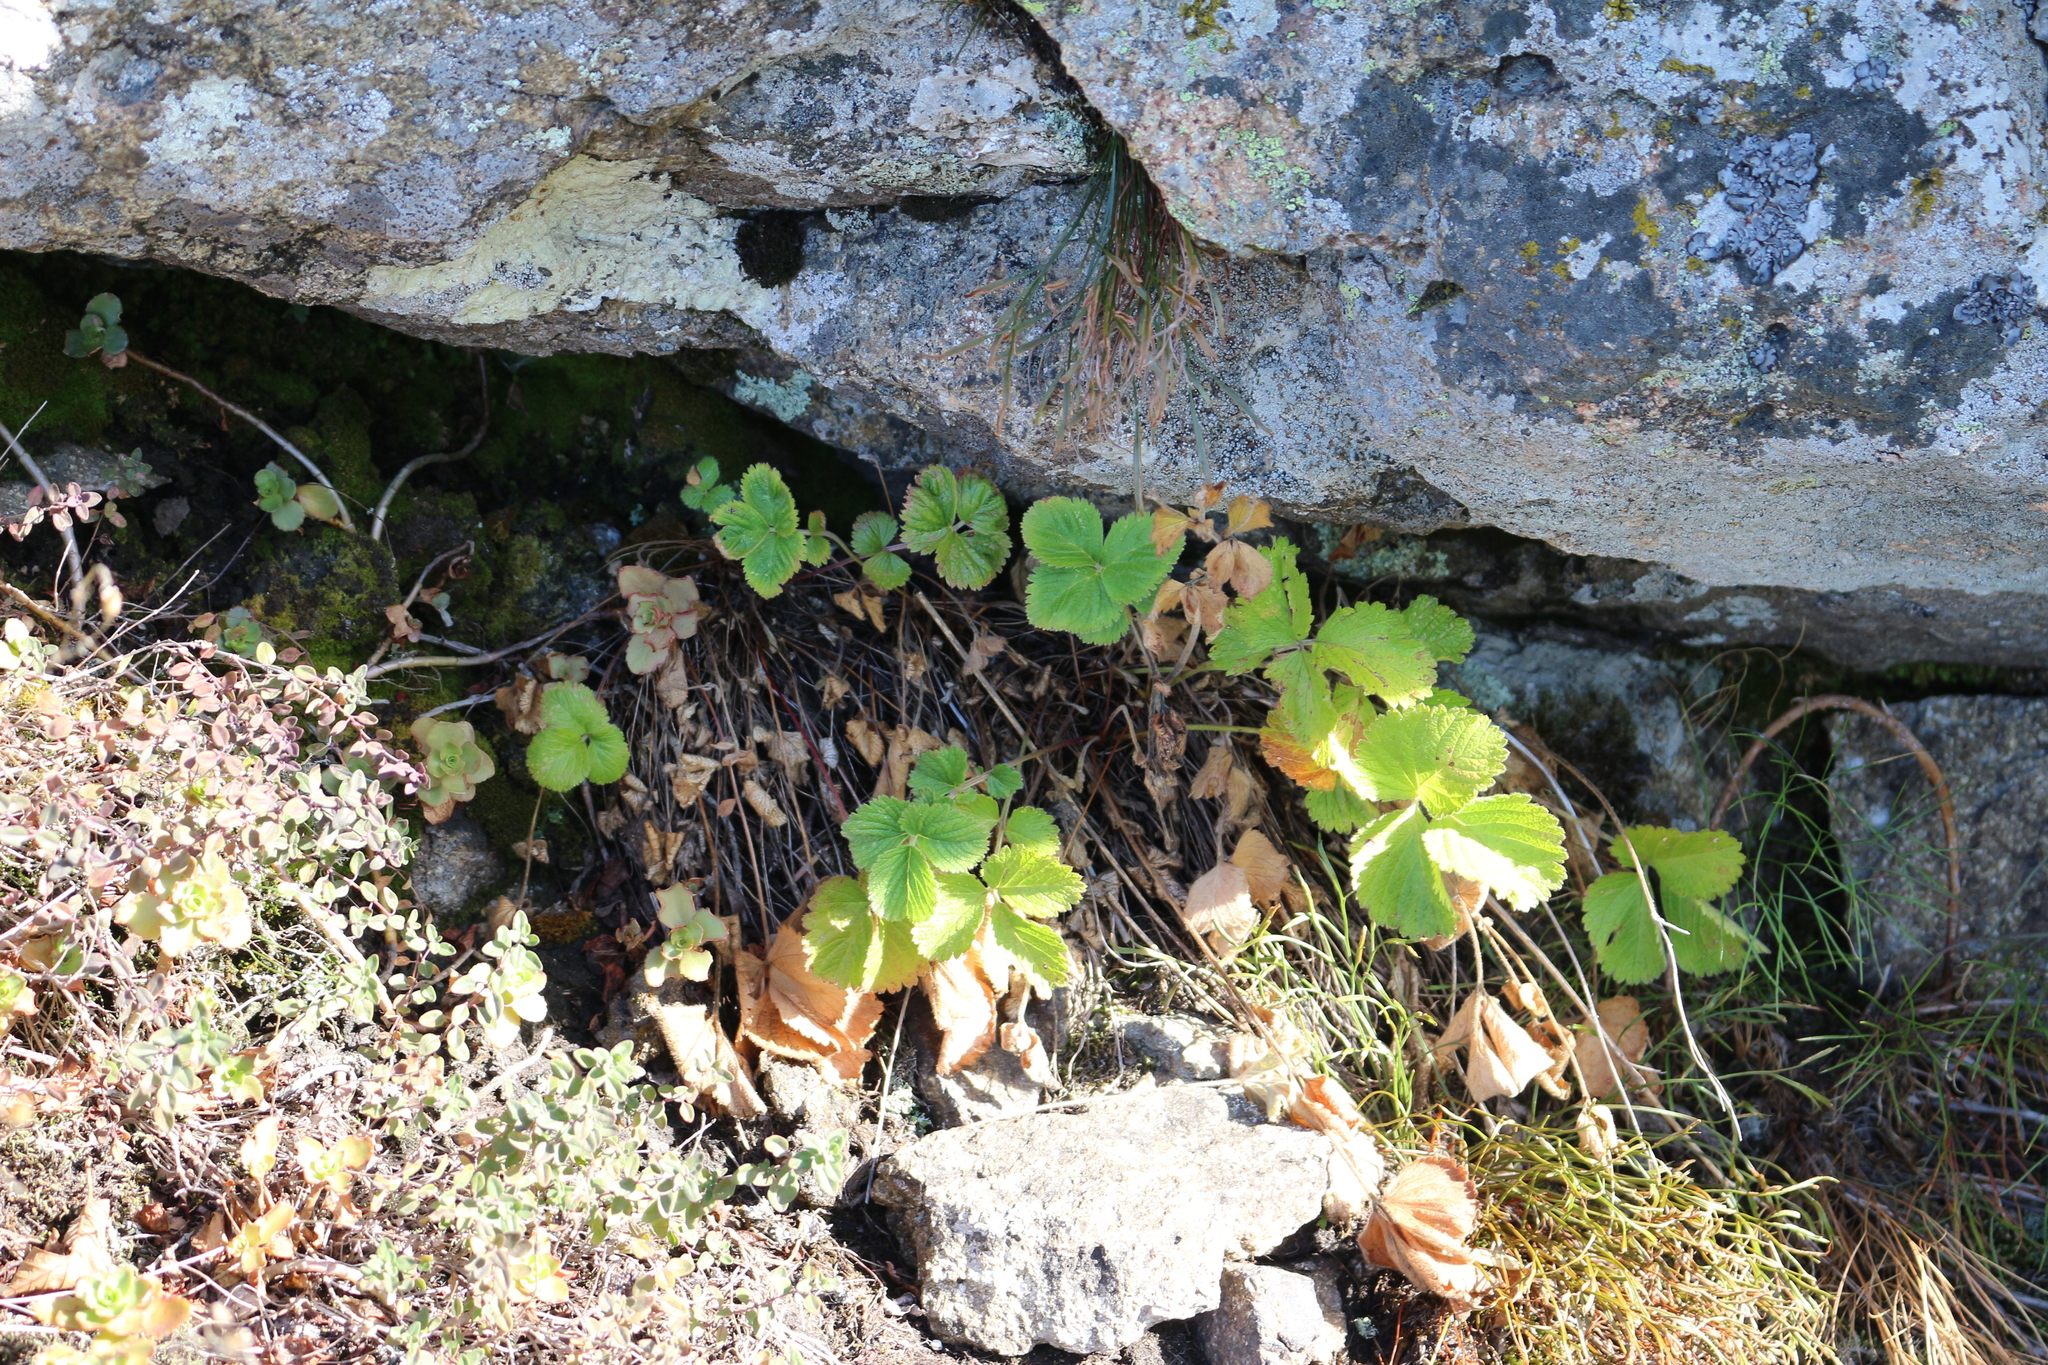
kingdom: Plantae
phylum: Tracheophyta
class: Magnoliopsida
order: Rosales
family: Rosaceae
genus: Drymocallis
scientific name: Drymocallis rupestris
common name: Rock cinquefoil
